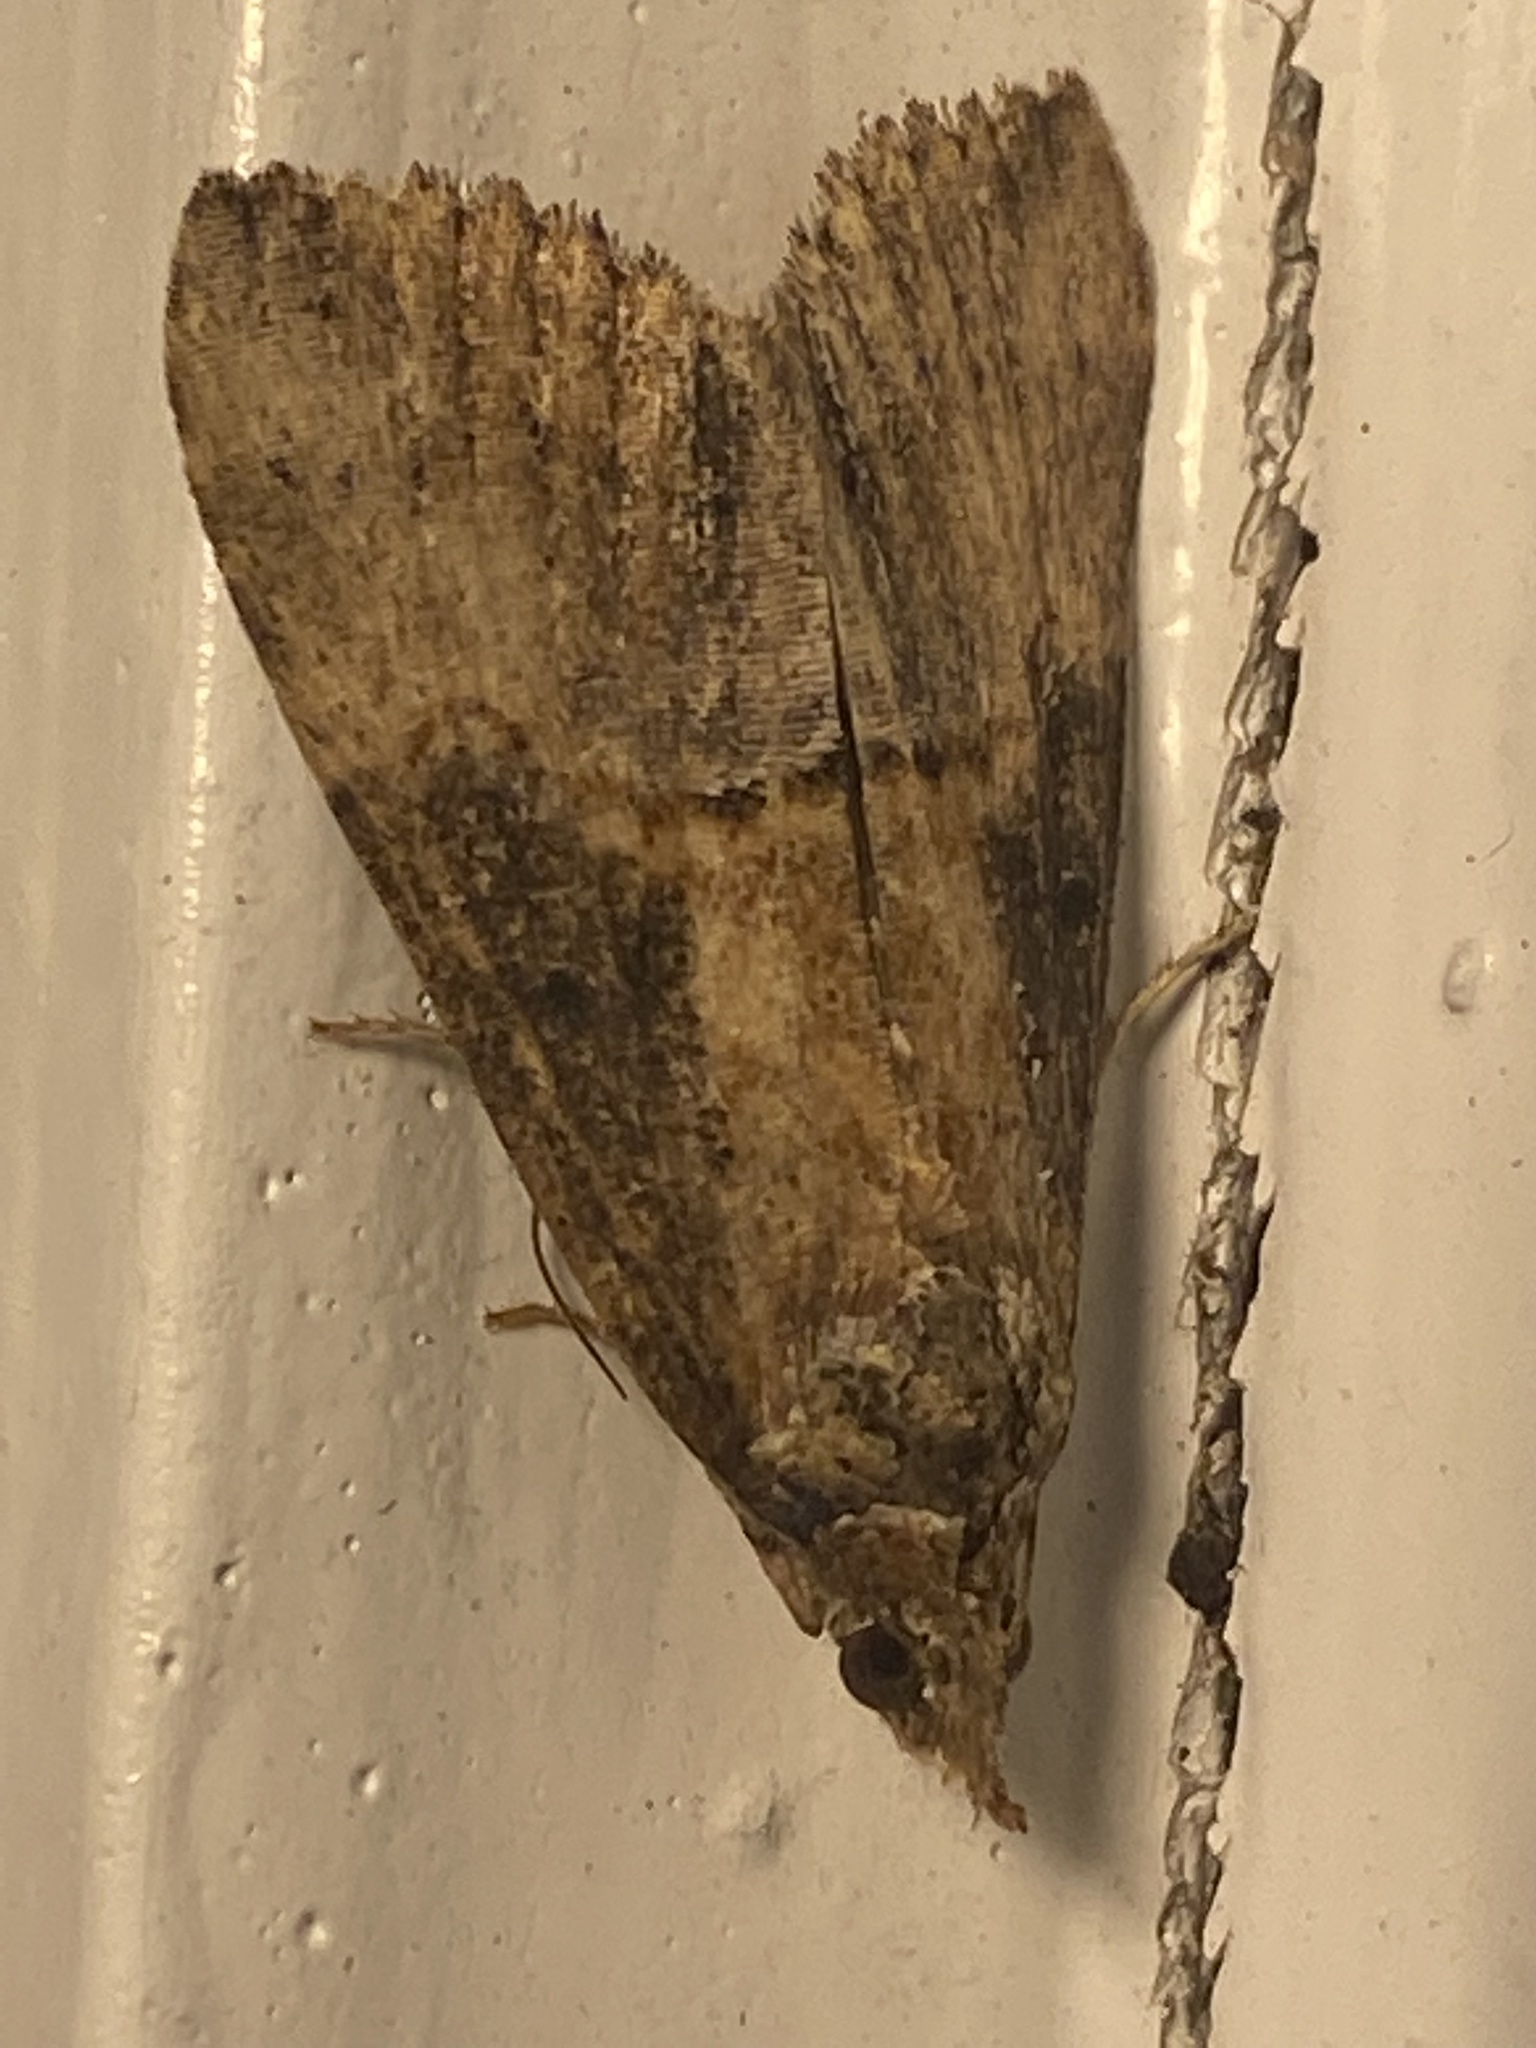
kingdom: Animalia
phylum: Arthropoda
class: Insecta
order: Lepidoptera
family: Erebidae
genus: Hypena
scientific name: Hypena scabra
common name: Green cloverworm
